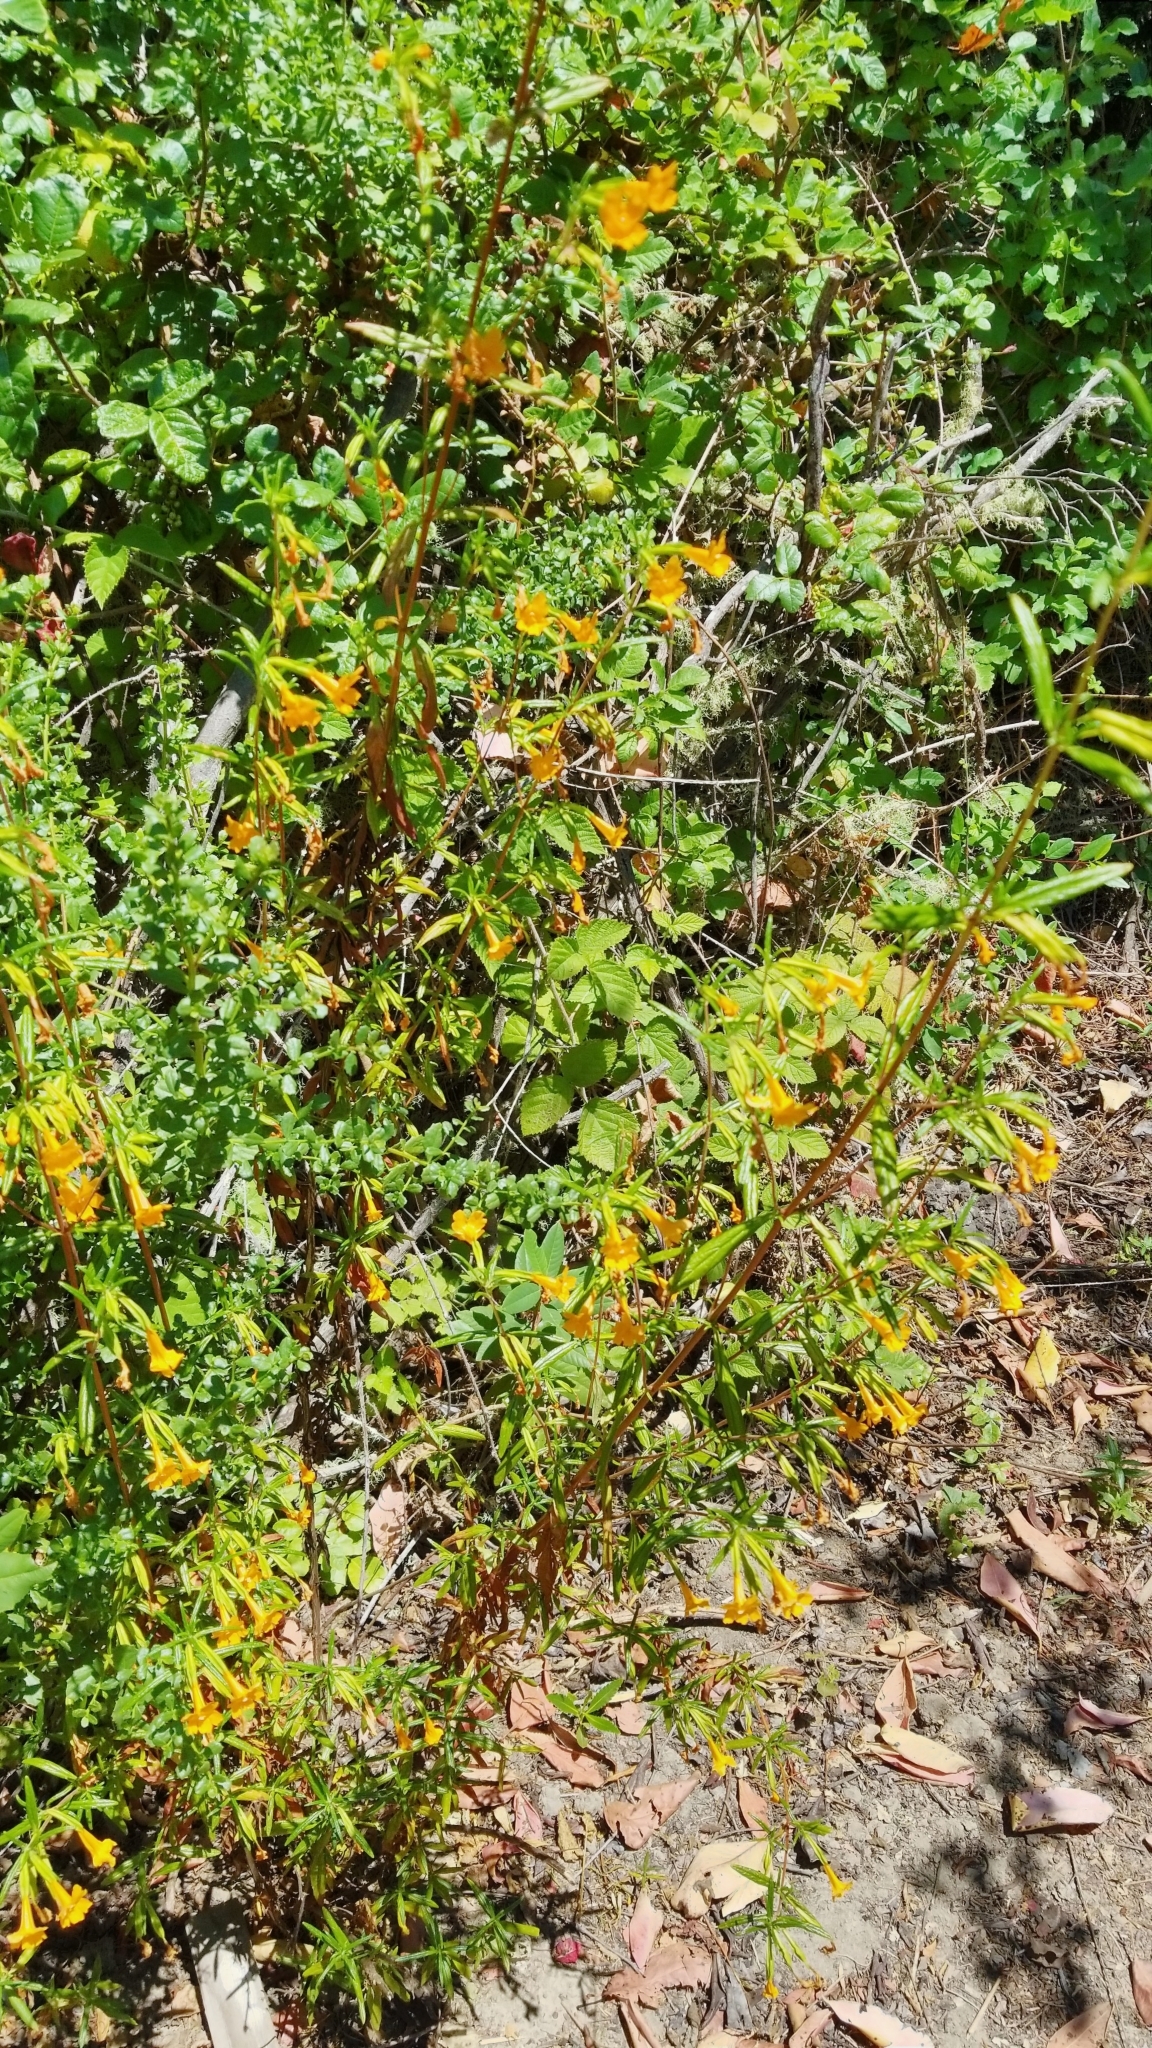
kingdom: Plantae
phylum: Tracheophyta
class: Magnoliopsida
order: Lamiales
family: Phrymaceae
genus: Diplacus
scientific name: Diplacus aurantiacus
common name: Bush monkey-flower
